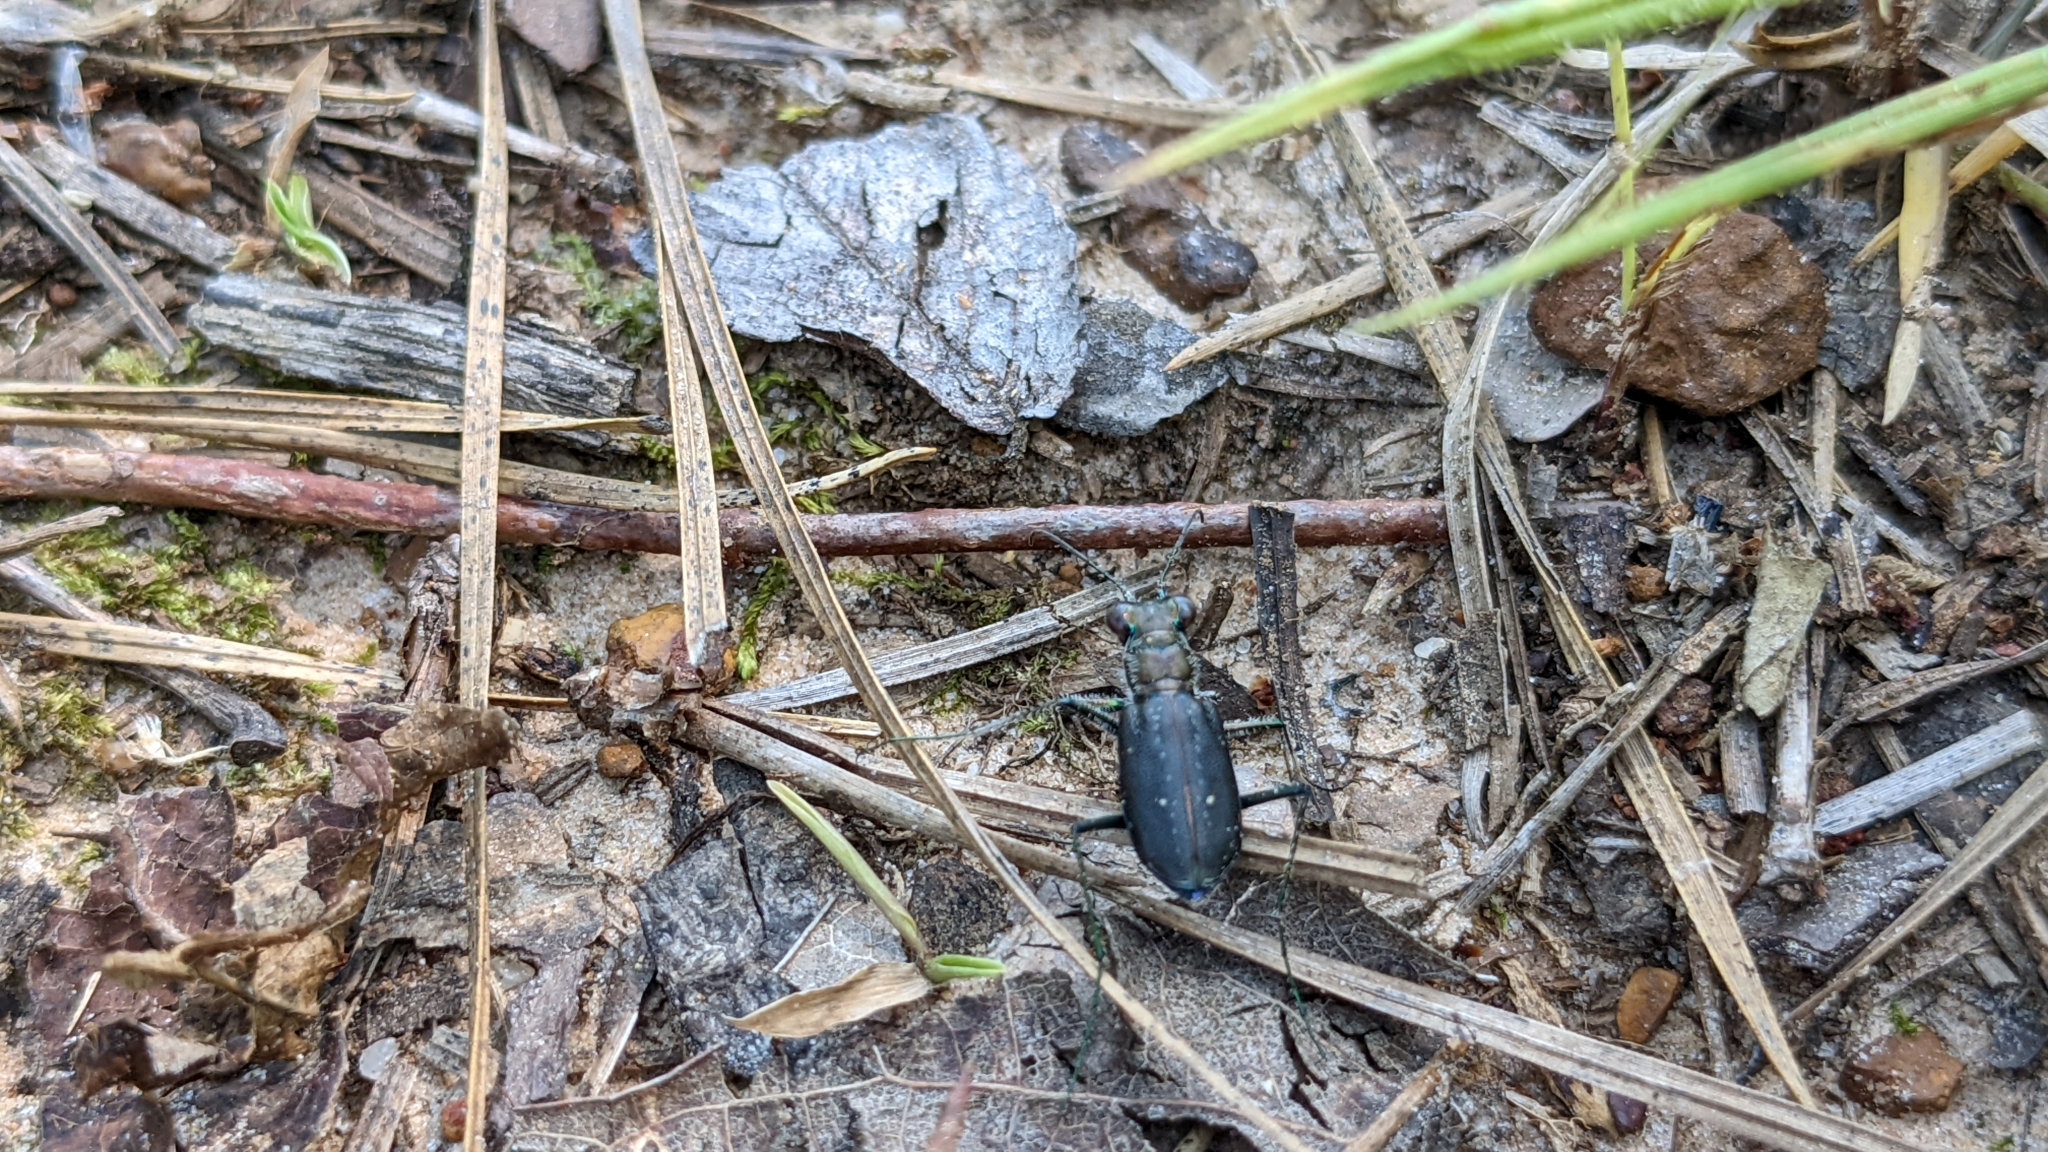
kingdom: Animalia
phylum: Arthropoda
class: Insecta
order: Coleoptera
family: Carabidae
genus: Cicindela
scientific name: Cicindela punctulata
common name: Punctured tiger beetle
